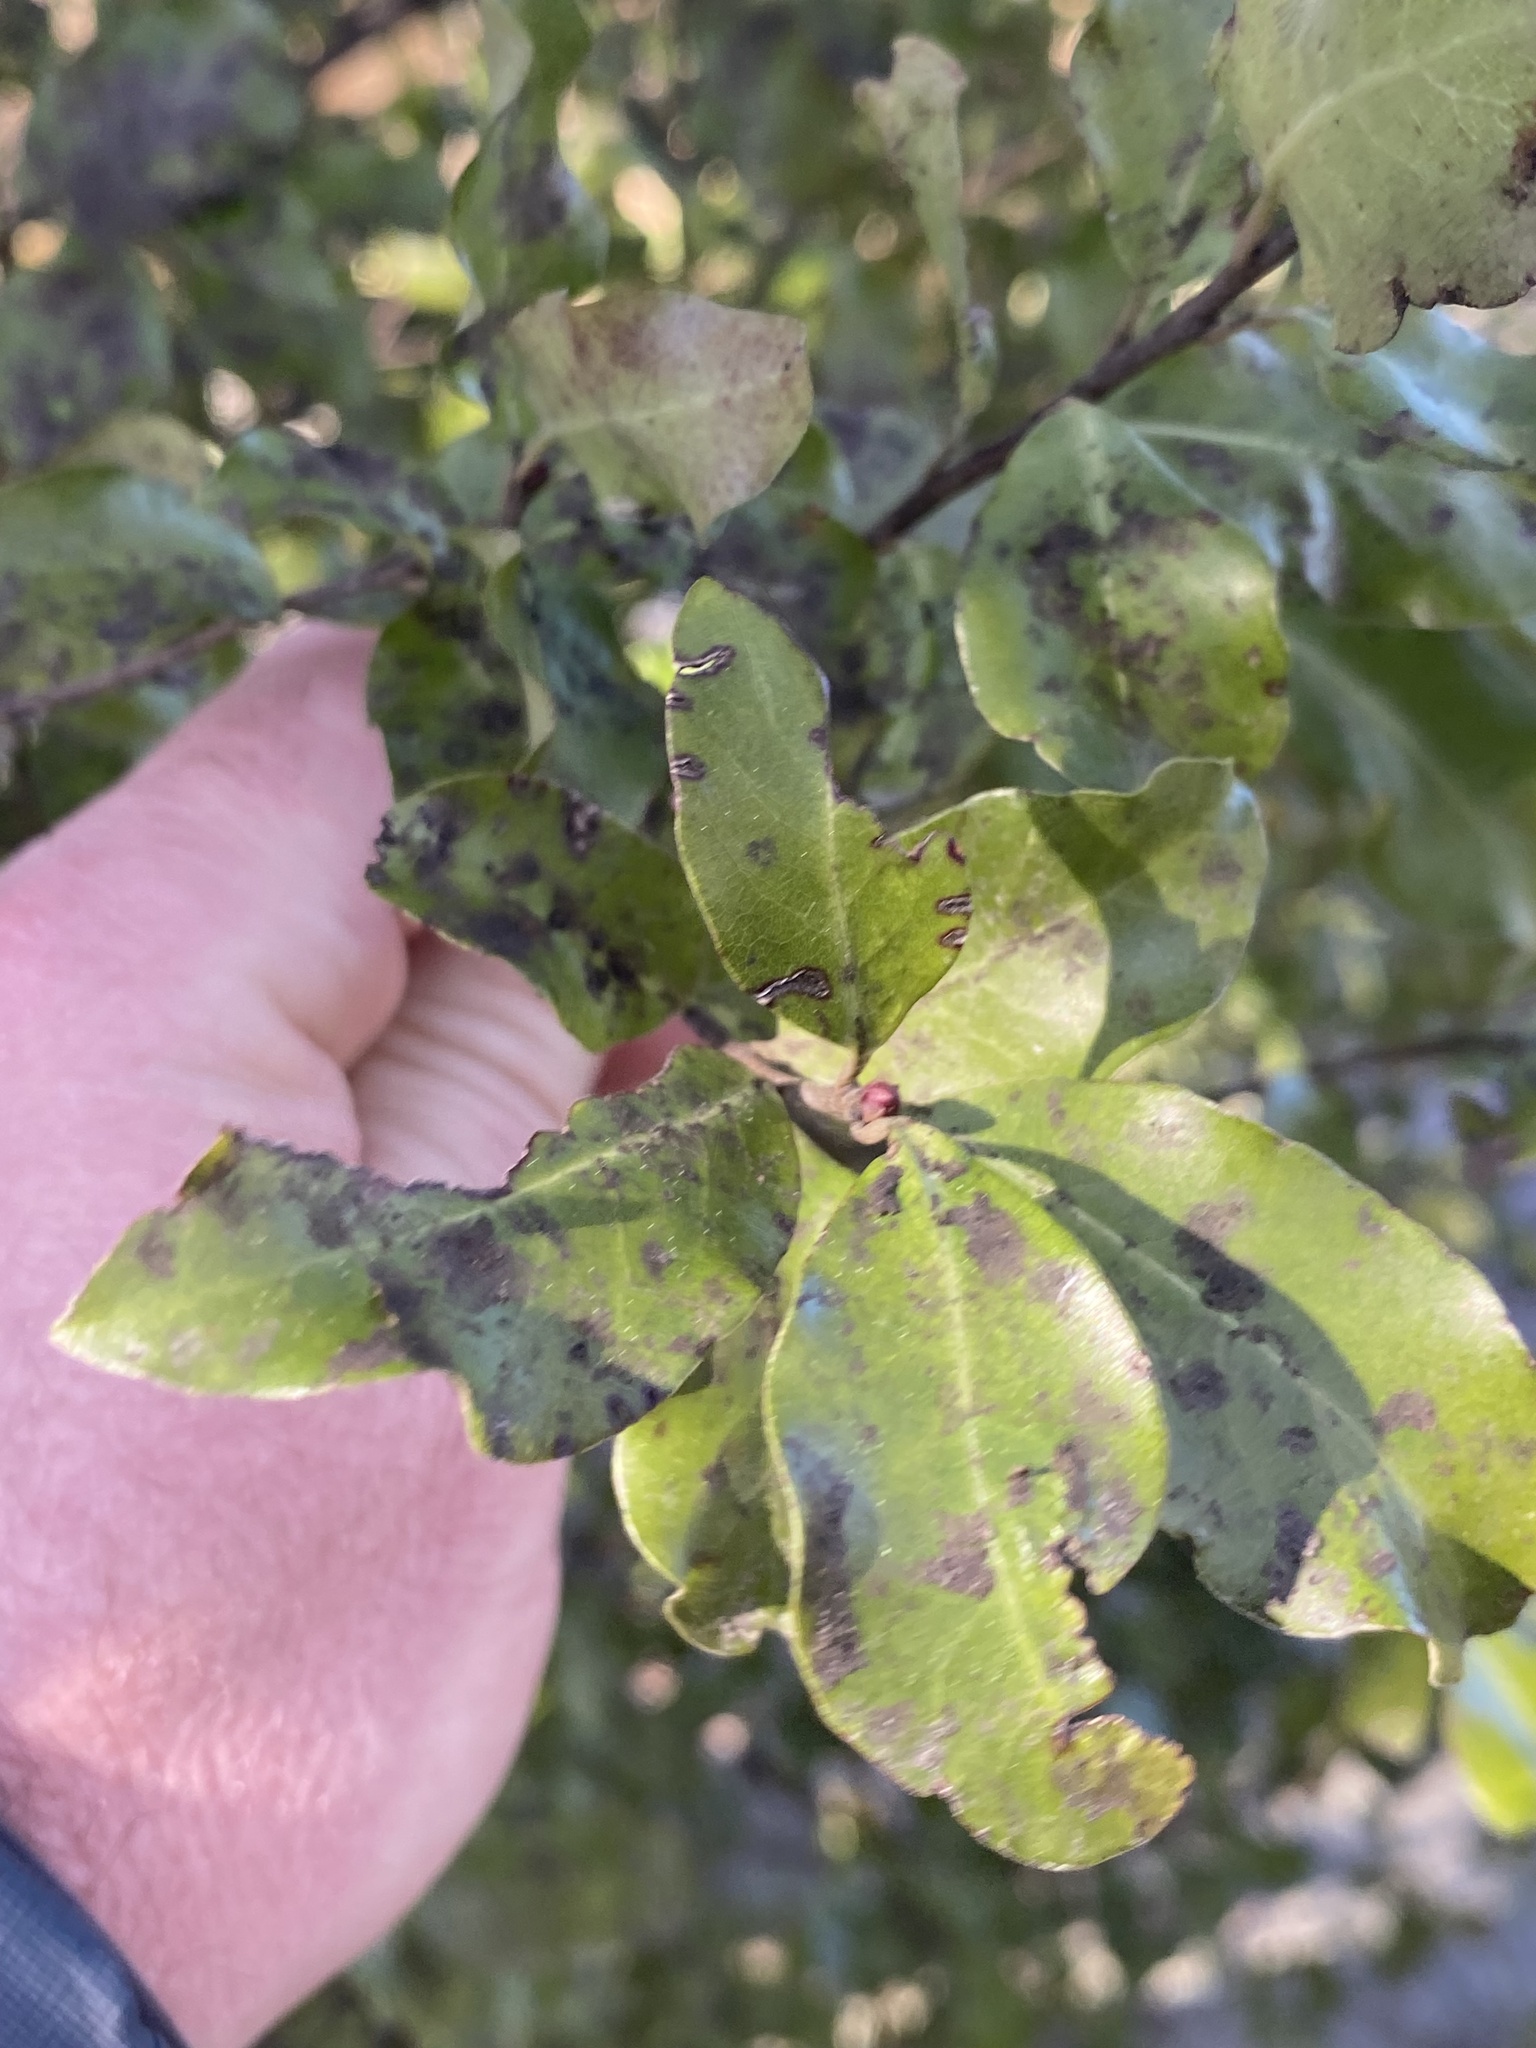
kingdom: Plantae
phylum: Tracheophyta
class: Magnoliopsida
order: Apiales
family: Pittosporaceae
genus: Pittosporum
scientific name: Pittosporum tenuifolium
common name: Kohuhu
